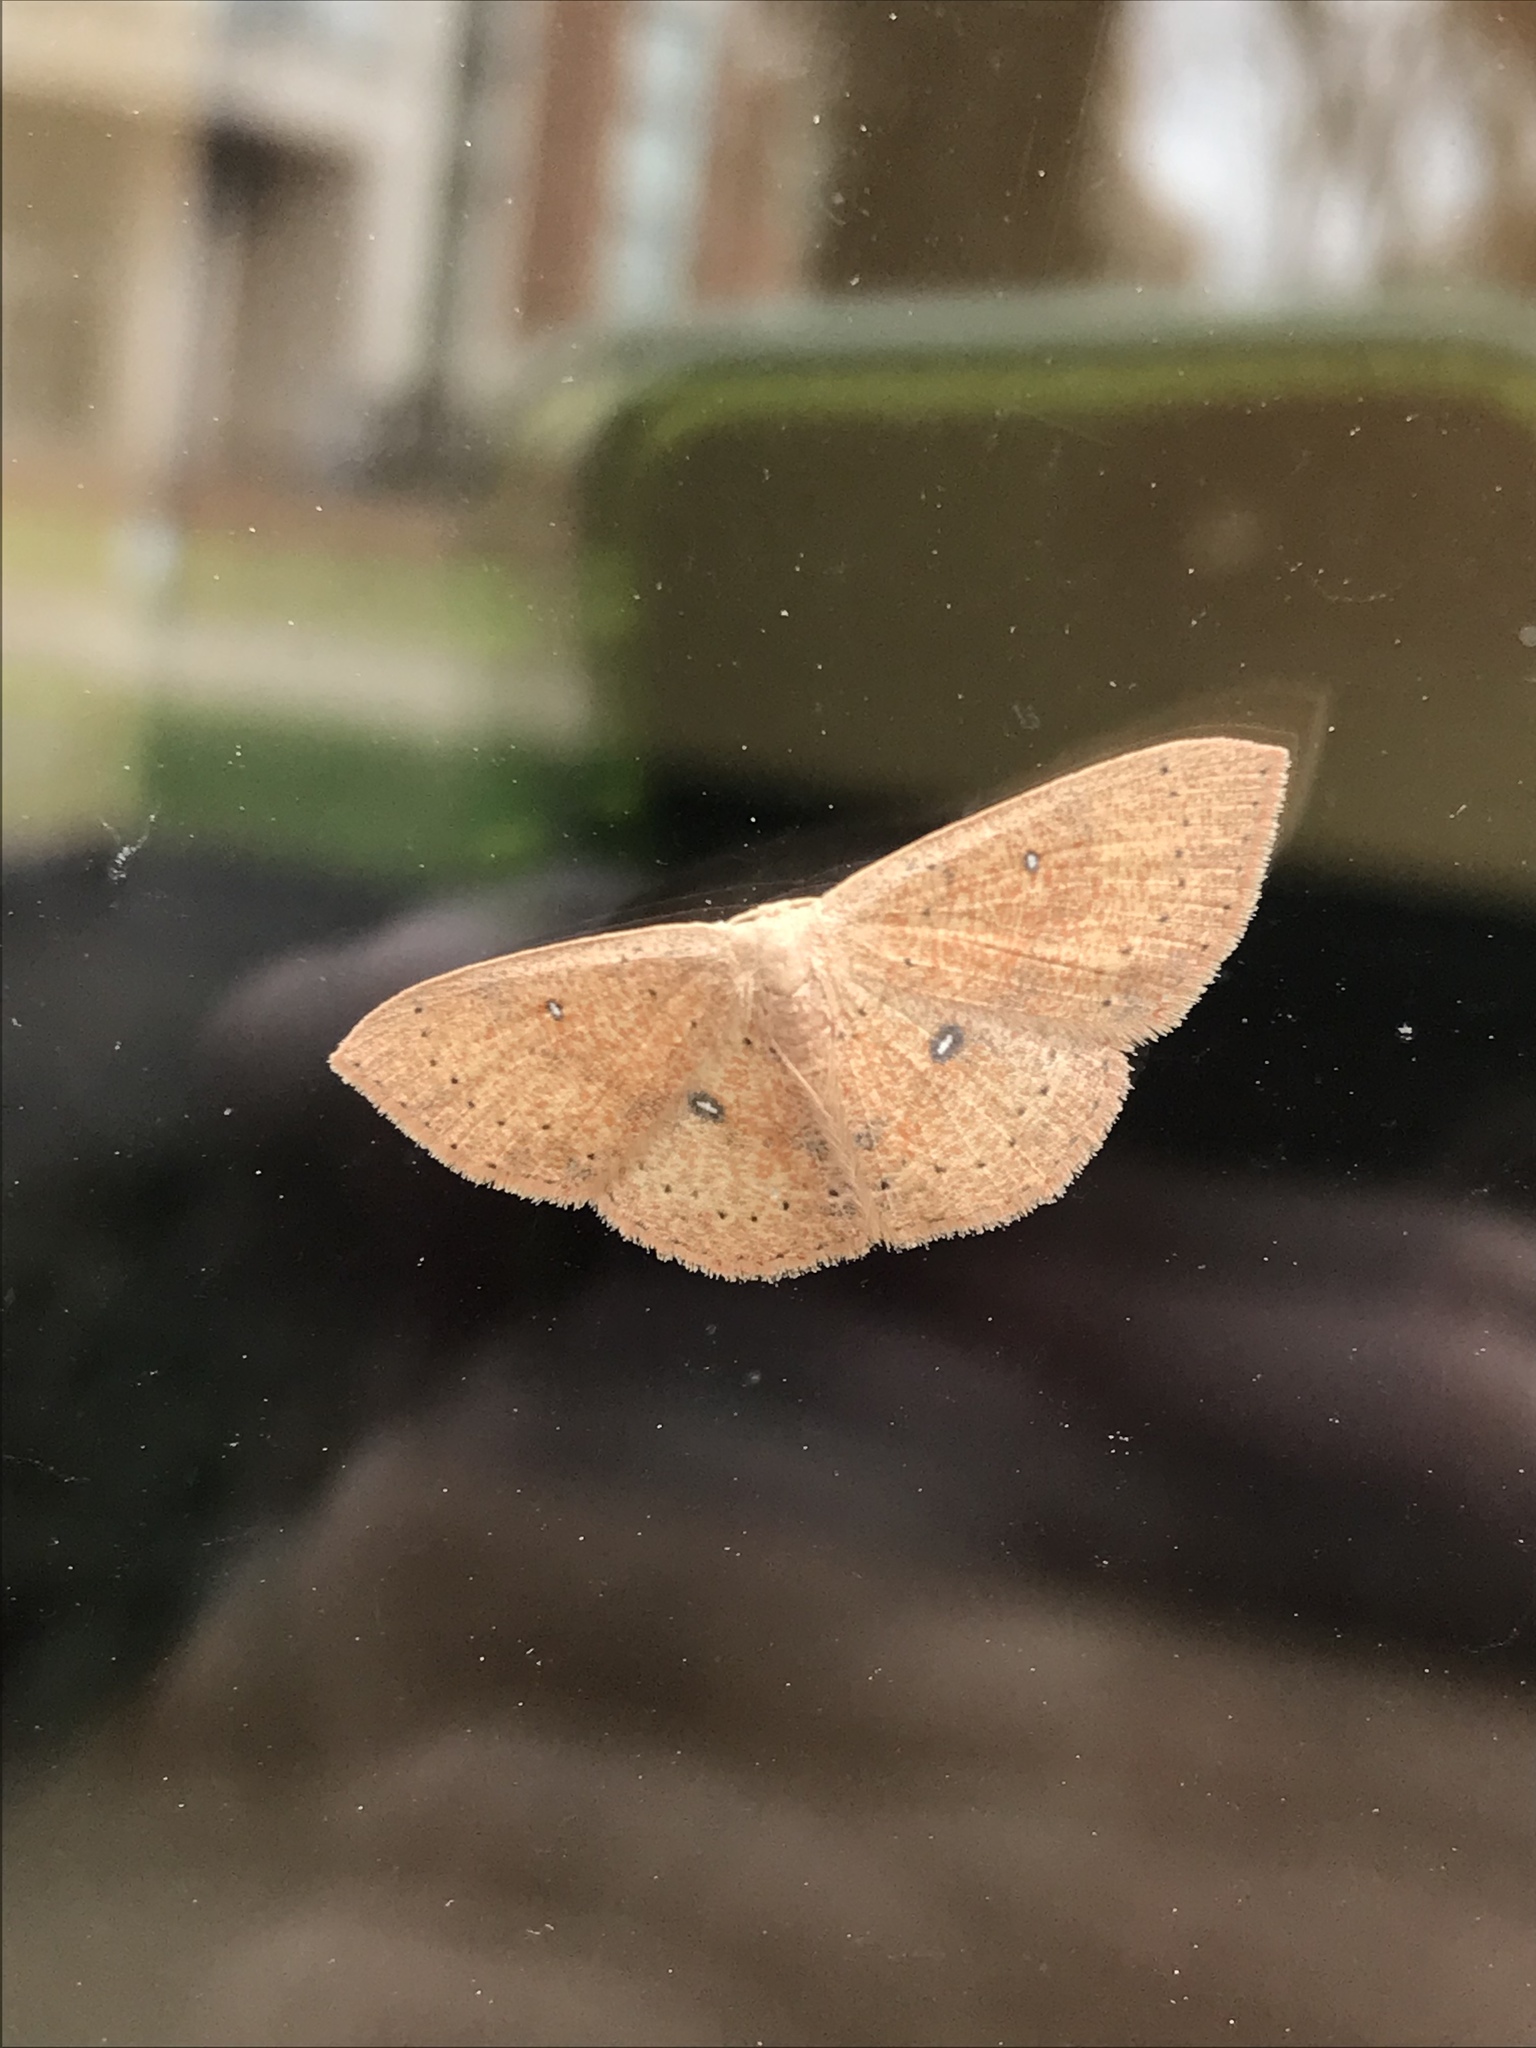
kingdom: Animalia
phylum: Arthropoda
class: Insecta
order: Lepidoptera
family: Geometridae
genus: Cyclophora
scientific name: Cyclophora packardi
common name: Packard's wave
